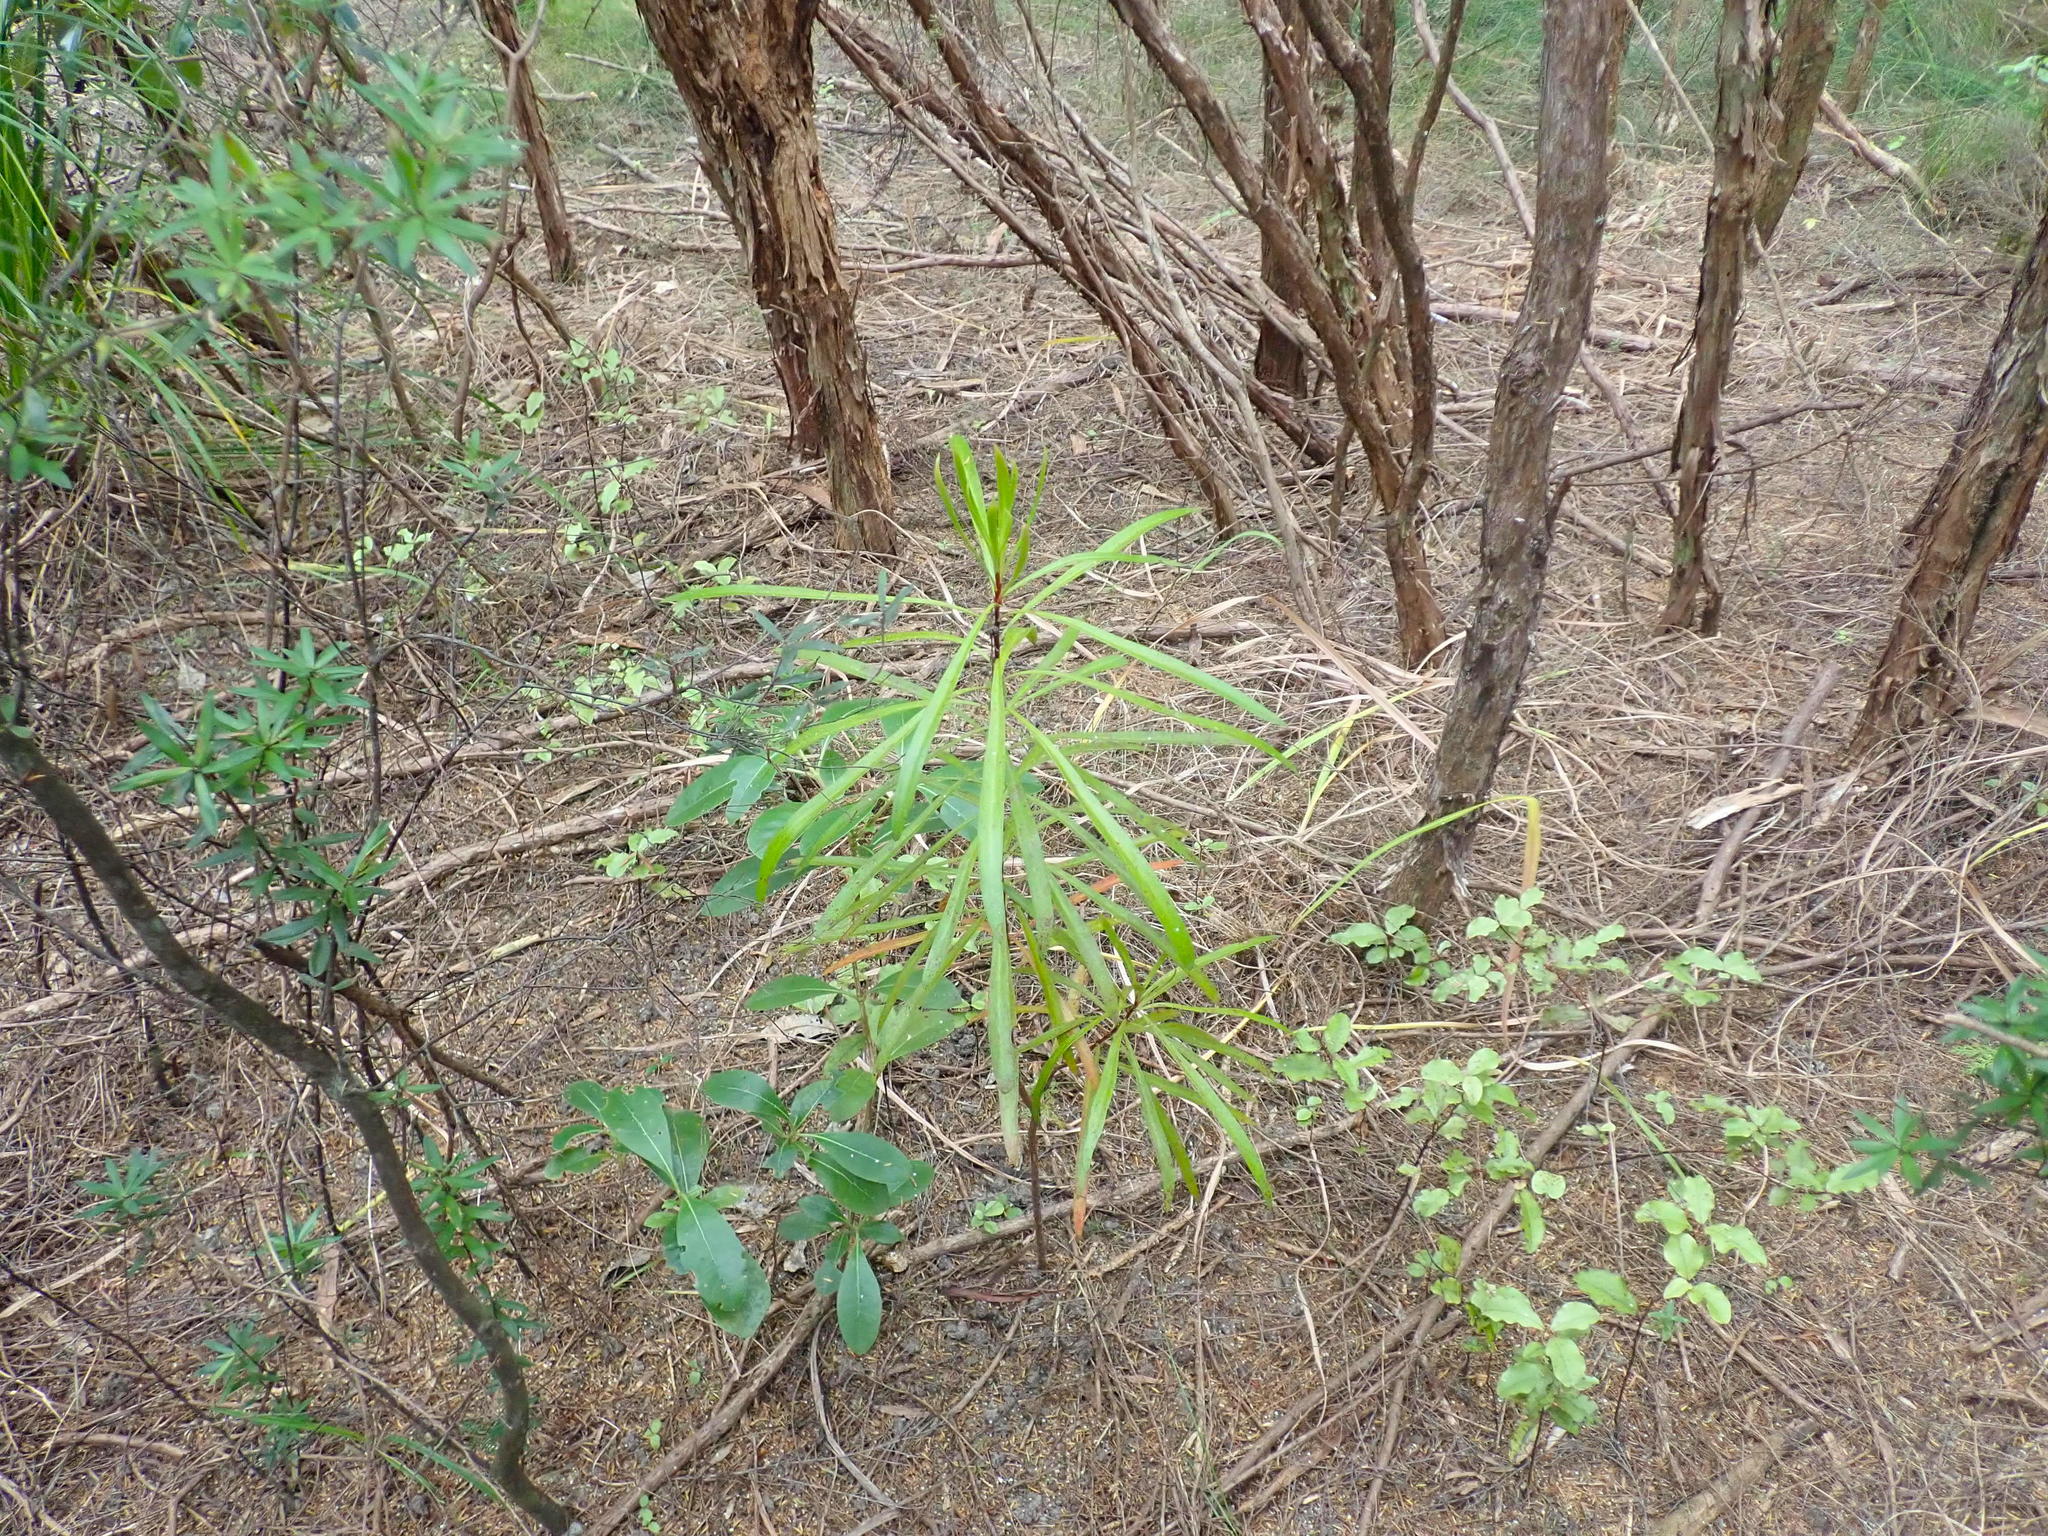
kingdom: Plantae
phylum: Tracheophyta
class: Magnoliopsida
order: Proteales
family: Proteaceae
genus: Toronia
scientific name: Toronia toru
